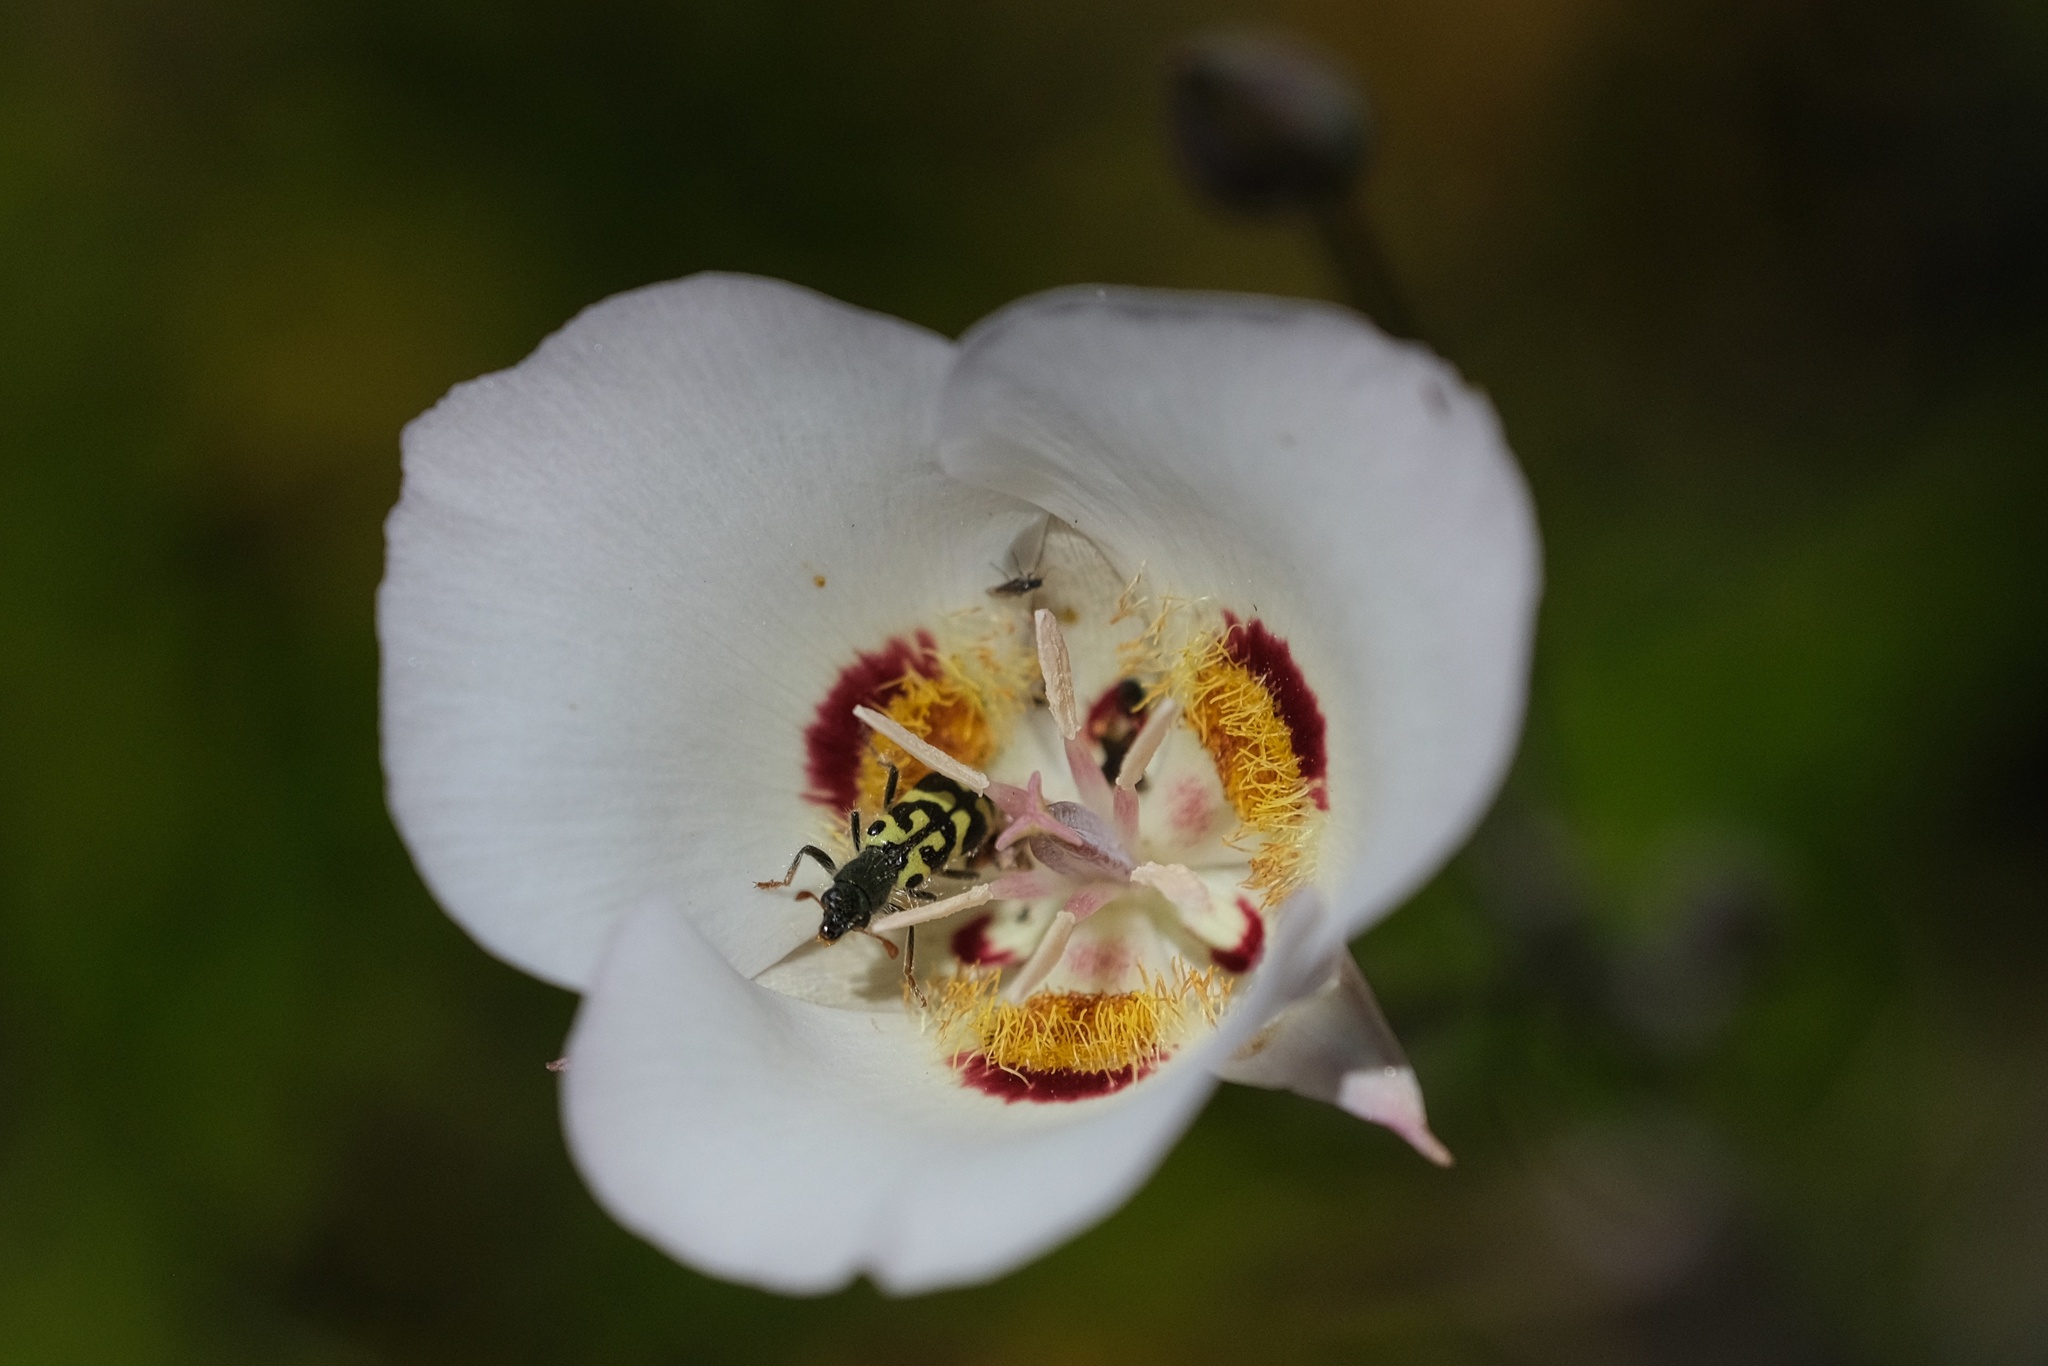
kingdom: Animalia
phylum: Arthropoda
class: Insecta
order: Coleoptera
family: Cleridae
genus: Trichodes
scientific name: Trichodes ornatus
